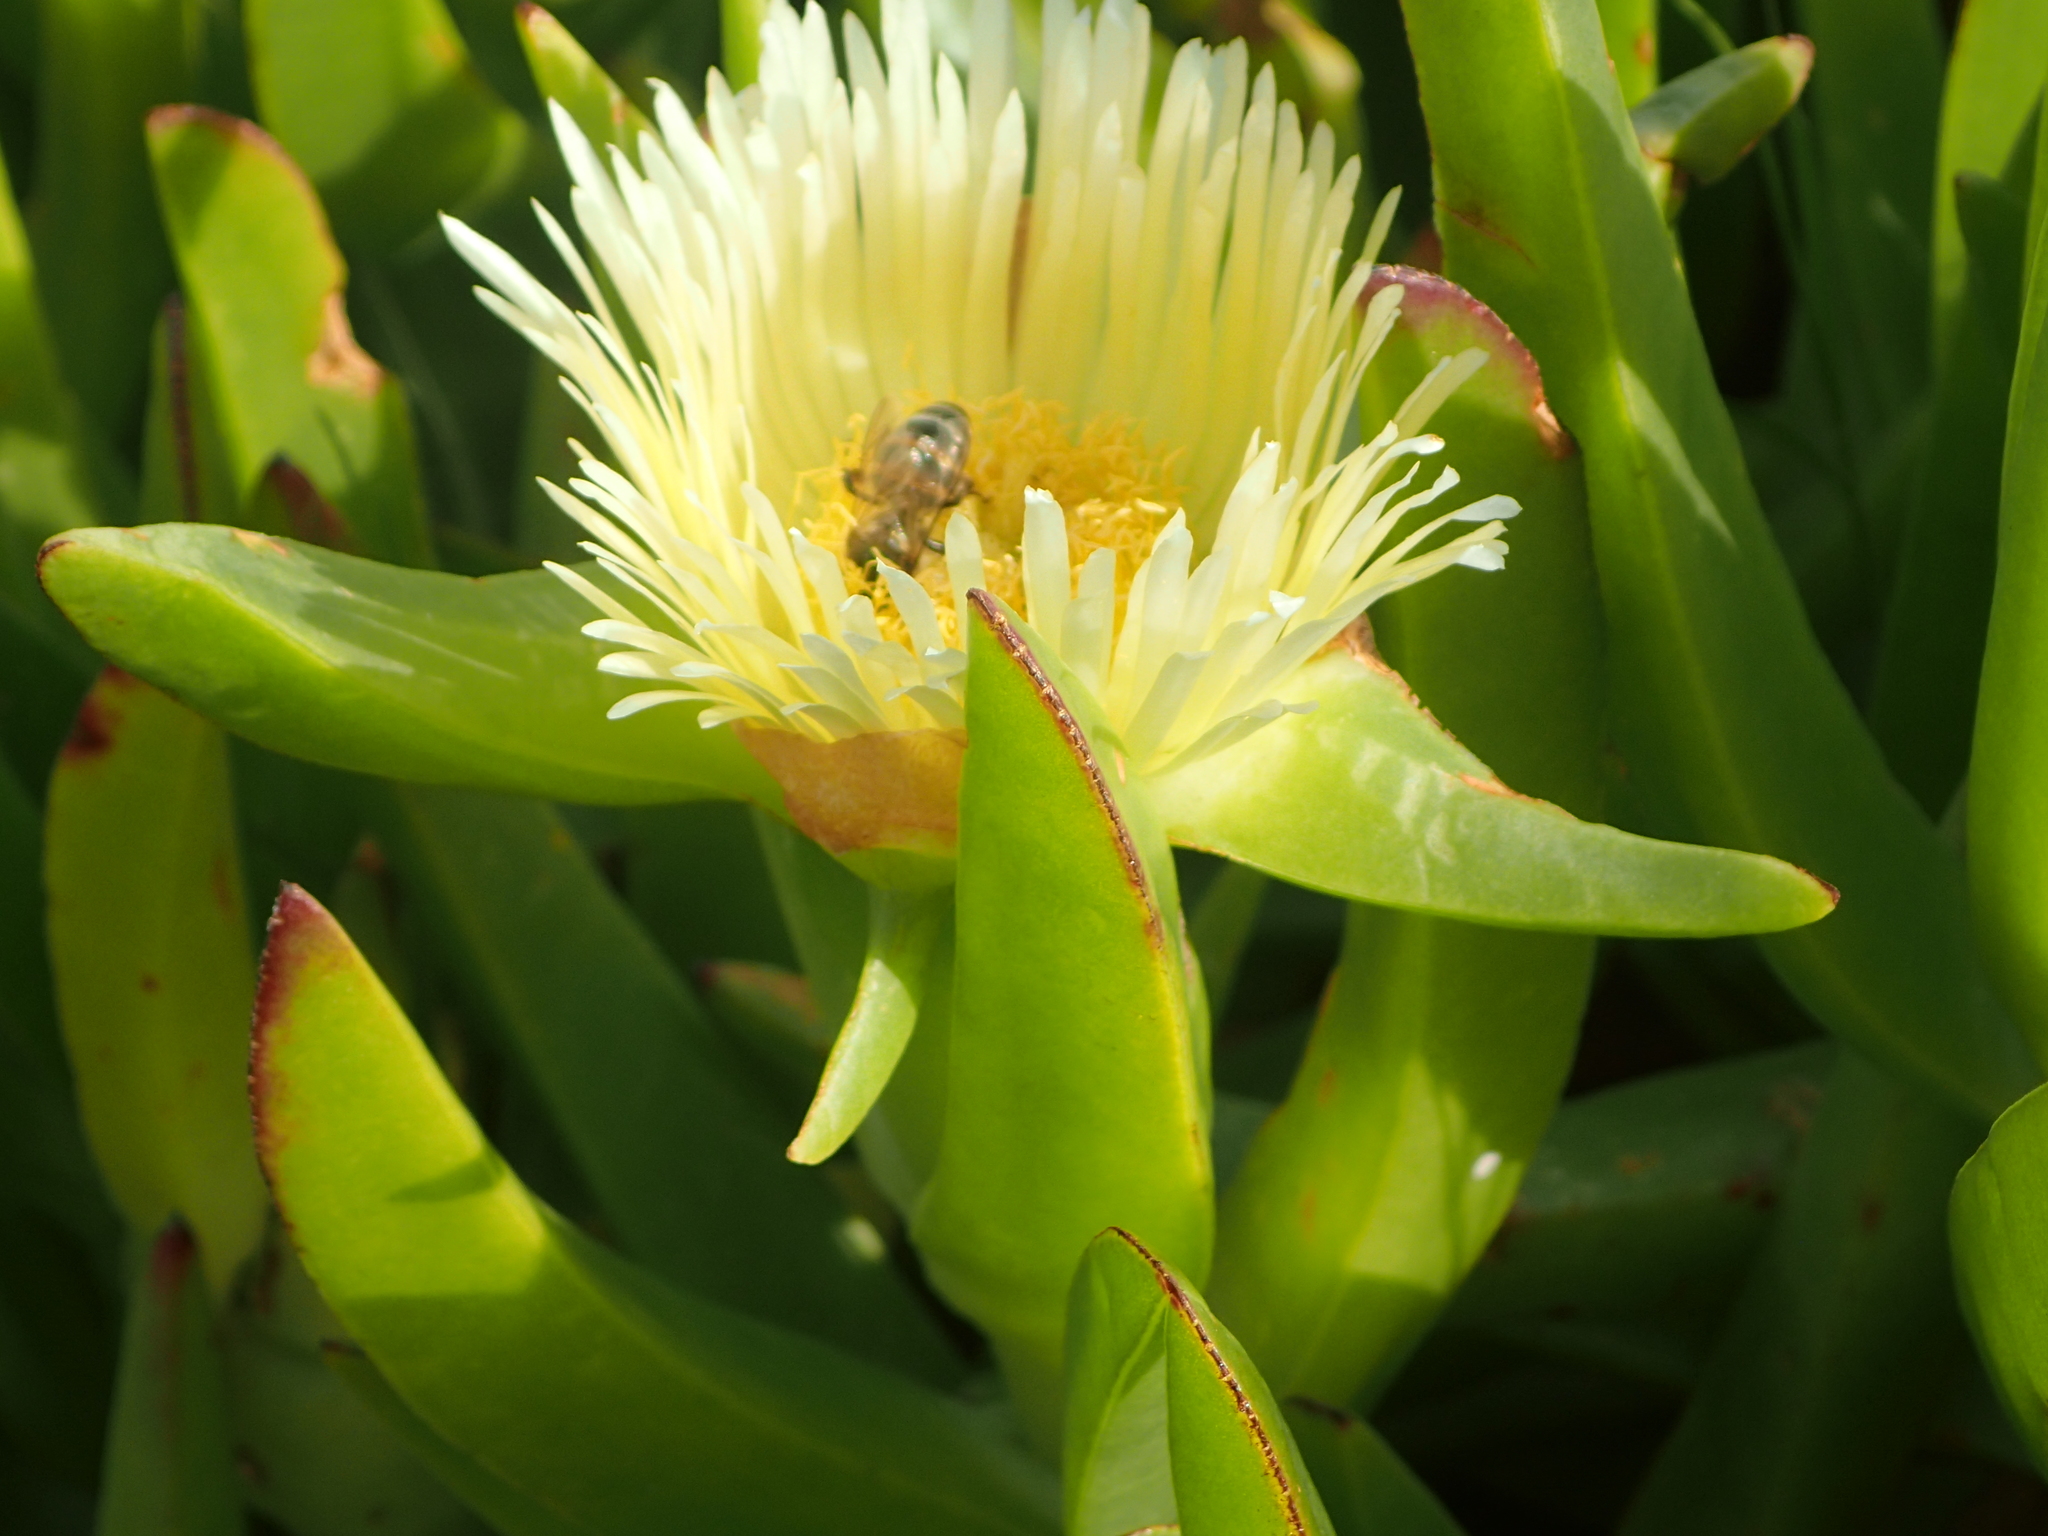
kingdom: Plantae
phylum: Tracheophyta
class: Magnoliopsida
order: Caryophyllales
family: Aizoaceae
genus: Carpobrotus
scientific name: Carpobrotus edulis
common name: Hottentot-fig
